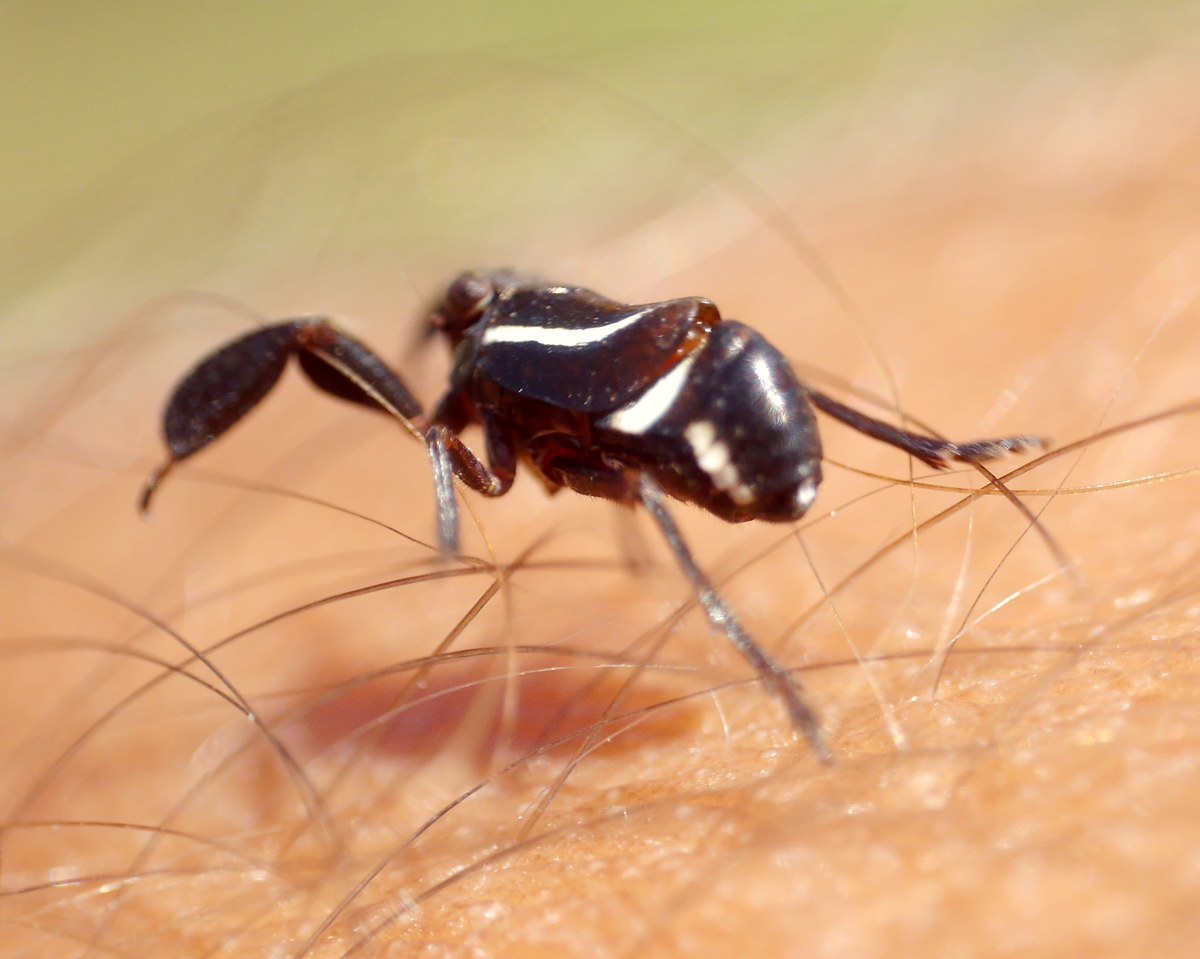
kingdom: Animalia
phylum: Arthropoda
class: Insecta
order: Hemiptera
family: Caliscelidae
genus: Caliscelis
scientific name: Caliscelis wallengreni
